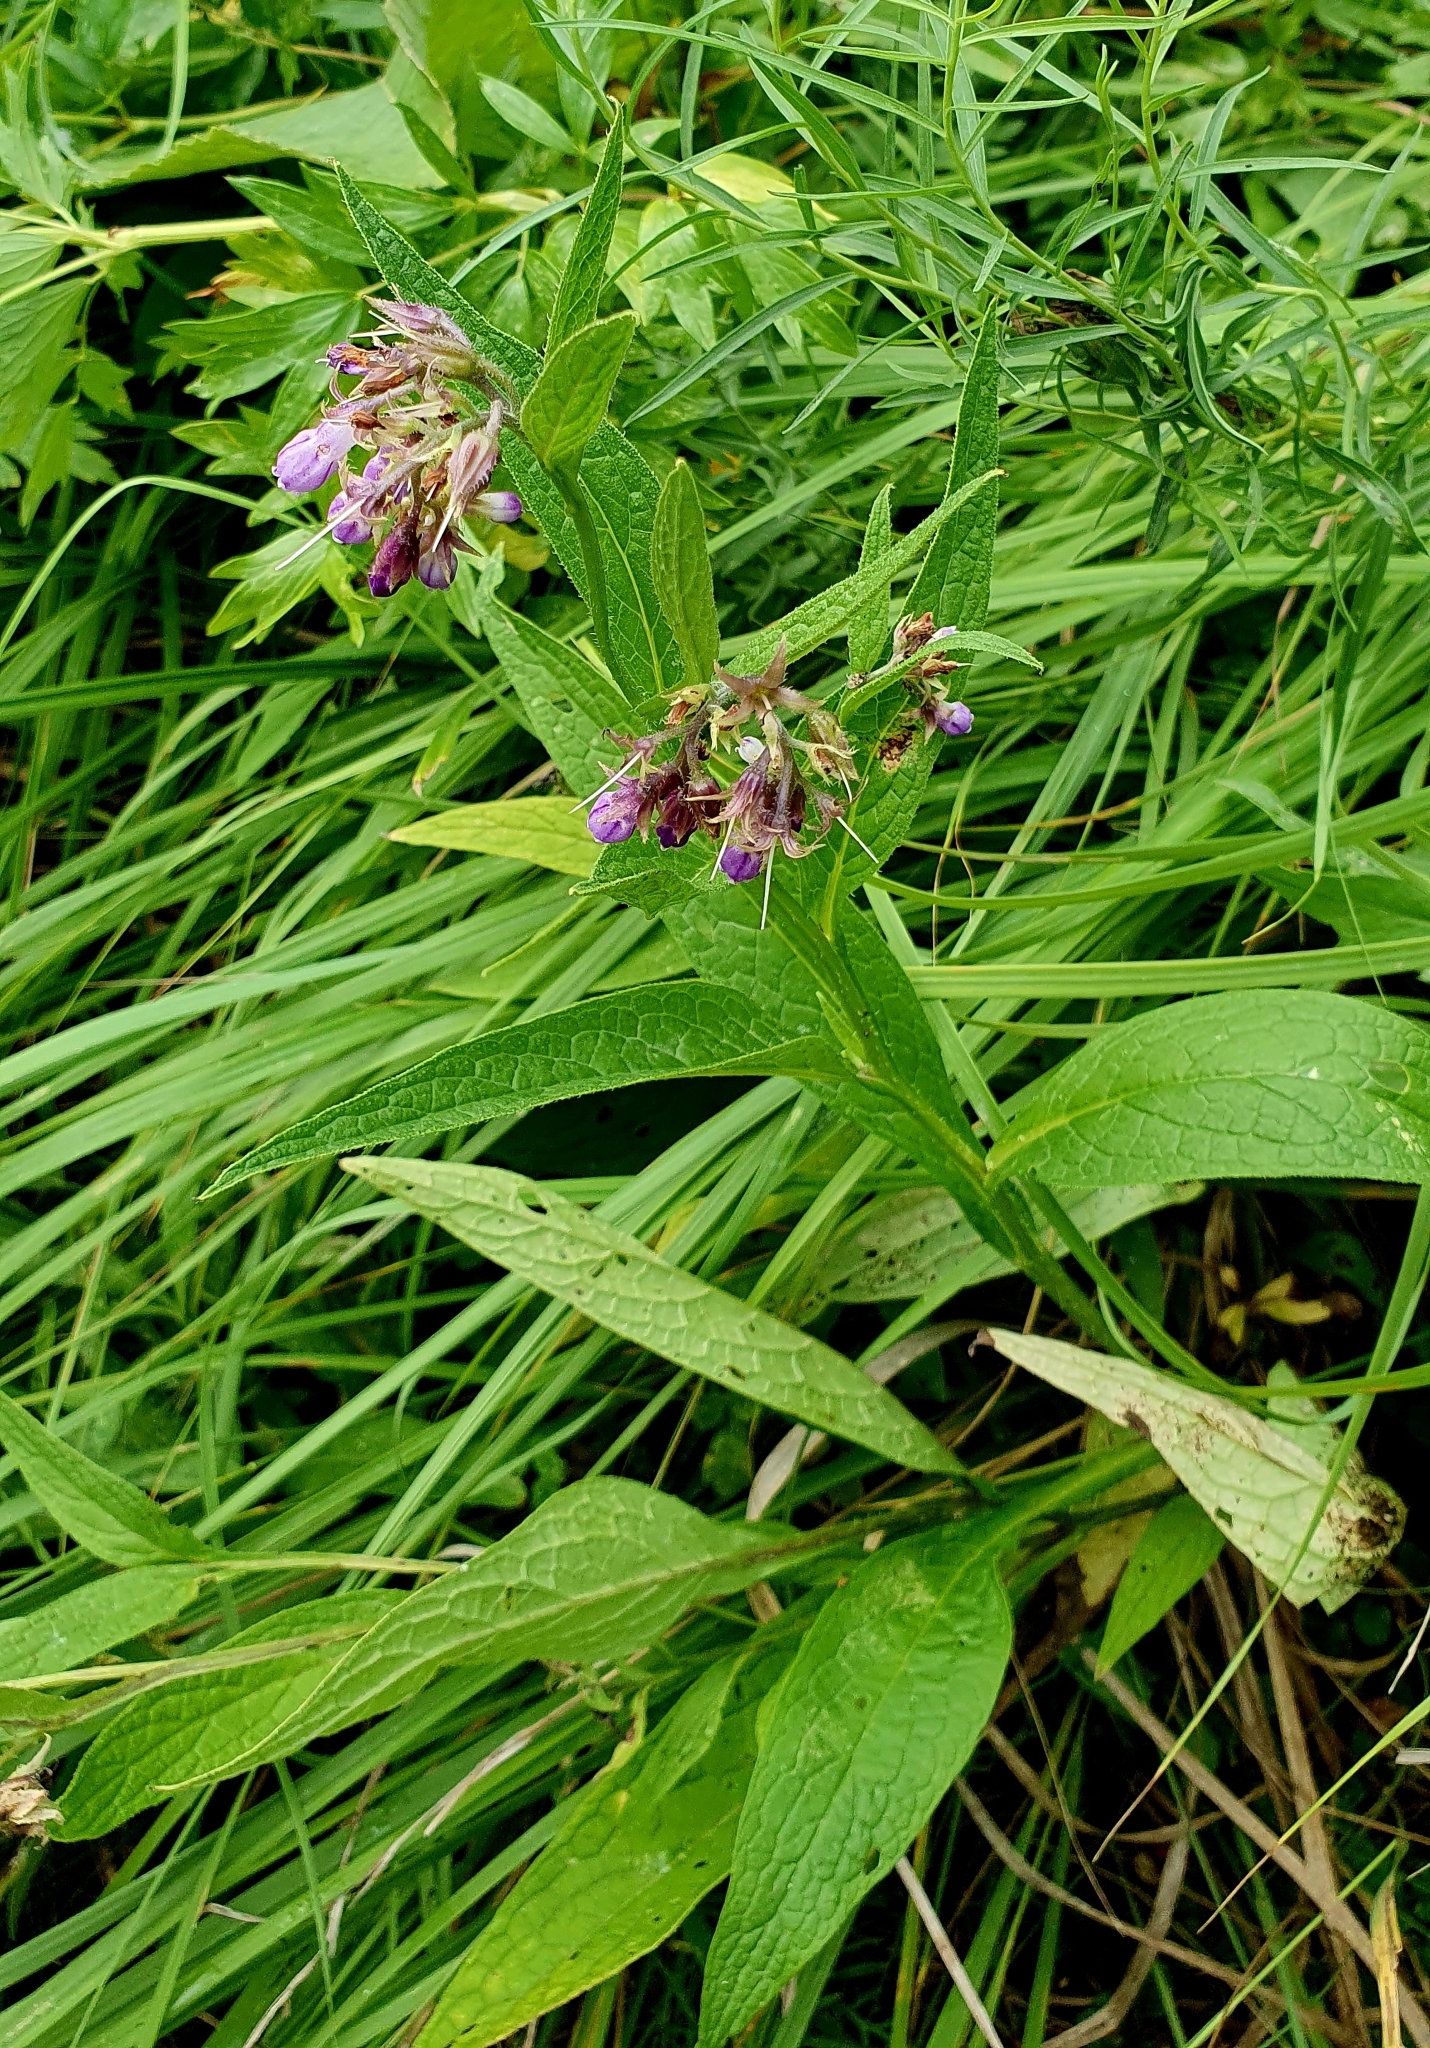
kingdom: Plantae
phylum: Tracheophyta
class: Magnoliopsida
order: Boraginales
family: Boraginaceae
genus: Symphytum
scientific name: Symphytum officinale
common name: Common comfrey
